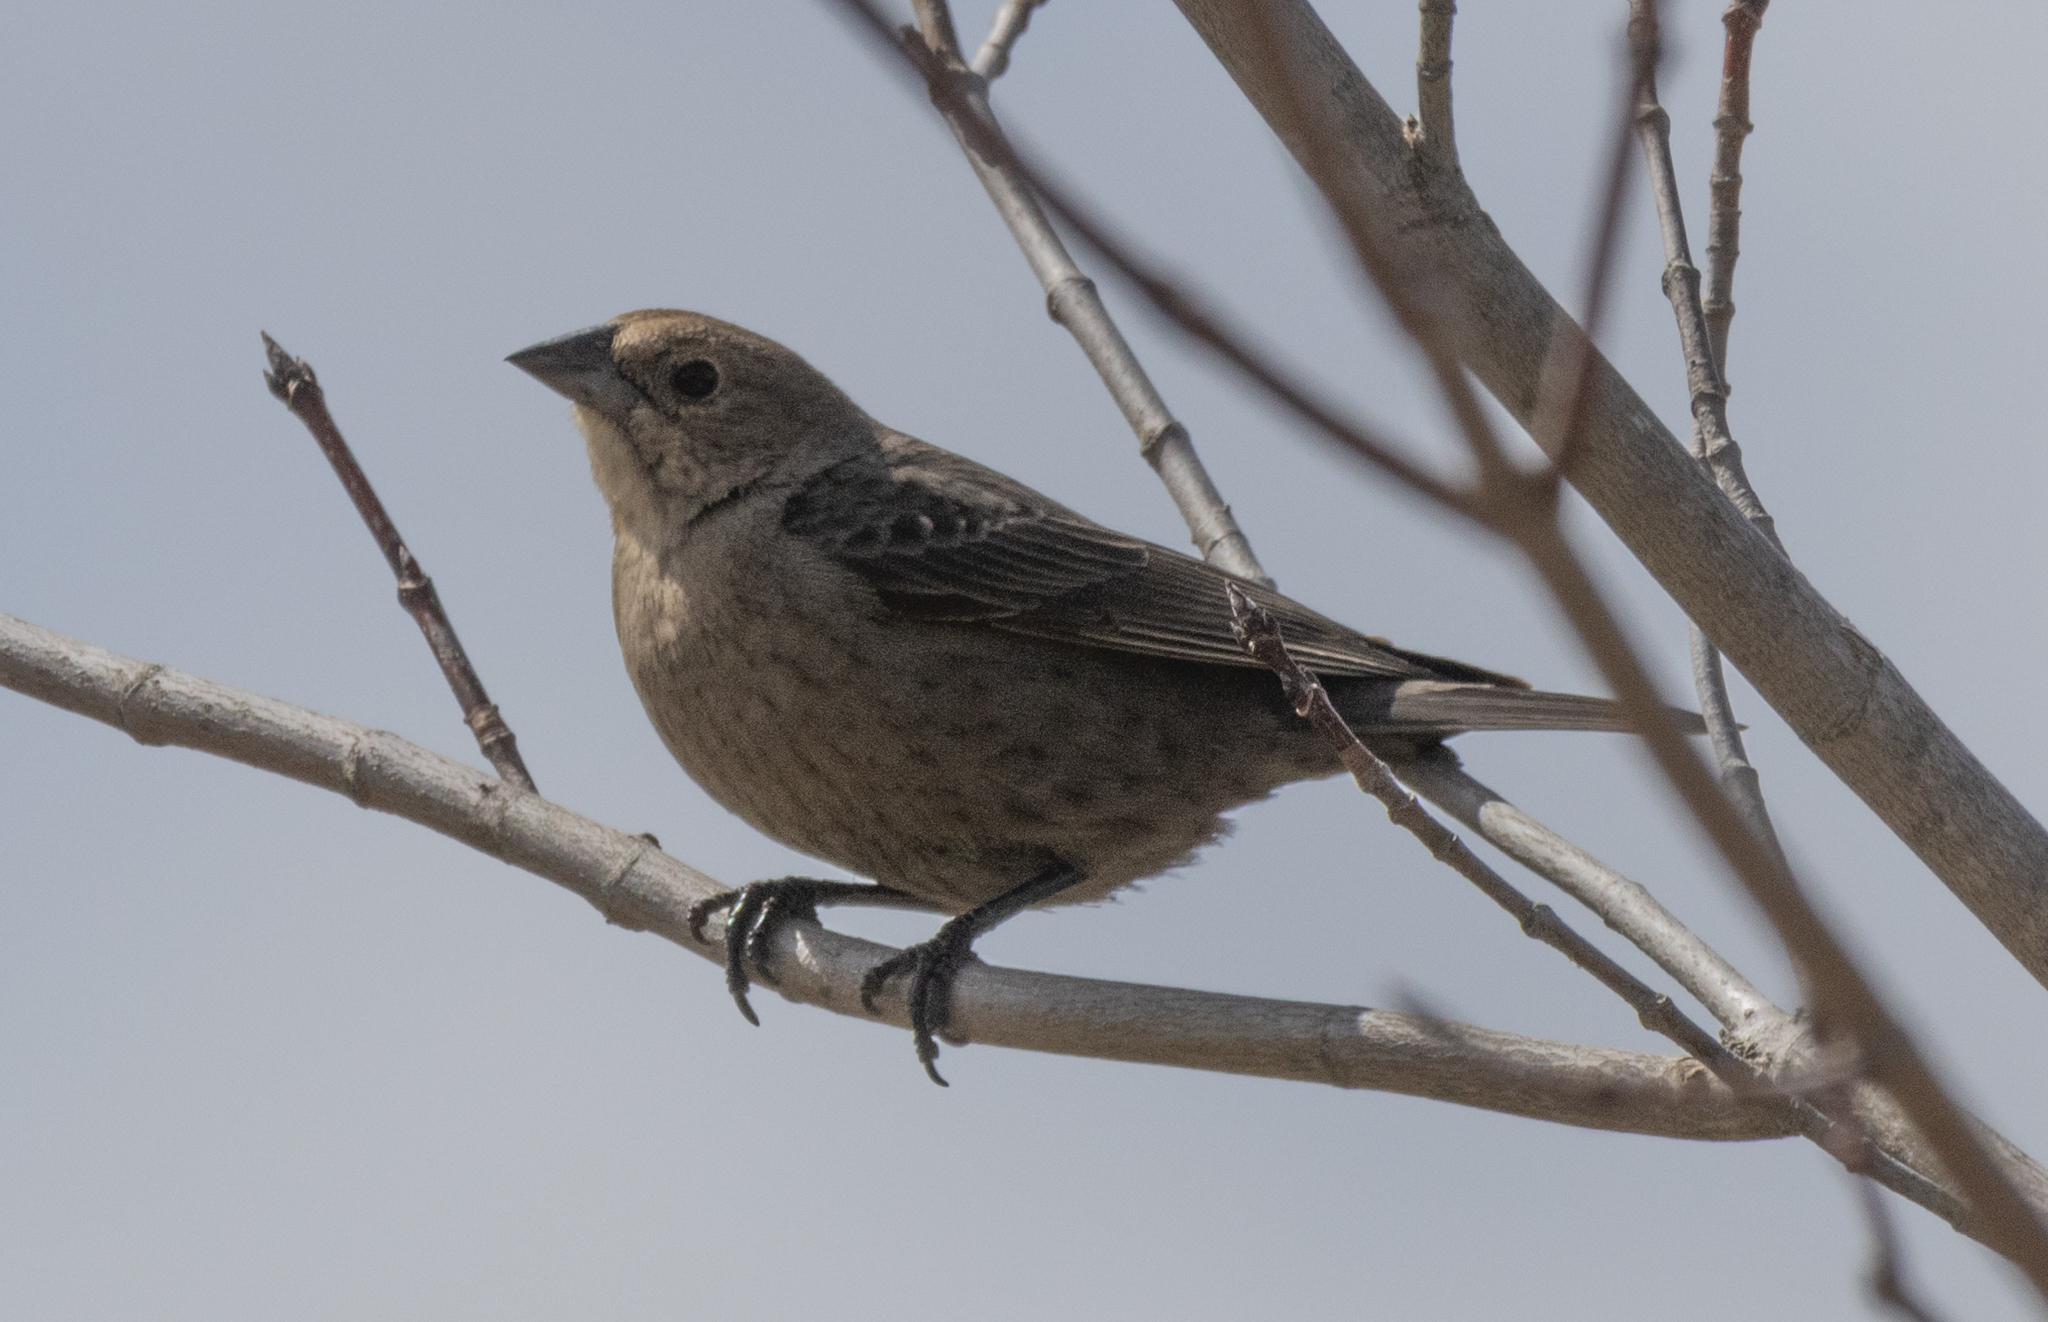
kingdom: Animalia
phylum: Chordata
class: Aves
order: Passeriformes
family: Icteridae
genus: Molothrus
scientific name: Molothrus ater
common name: Brown-headed cowbird
